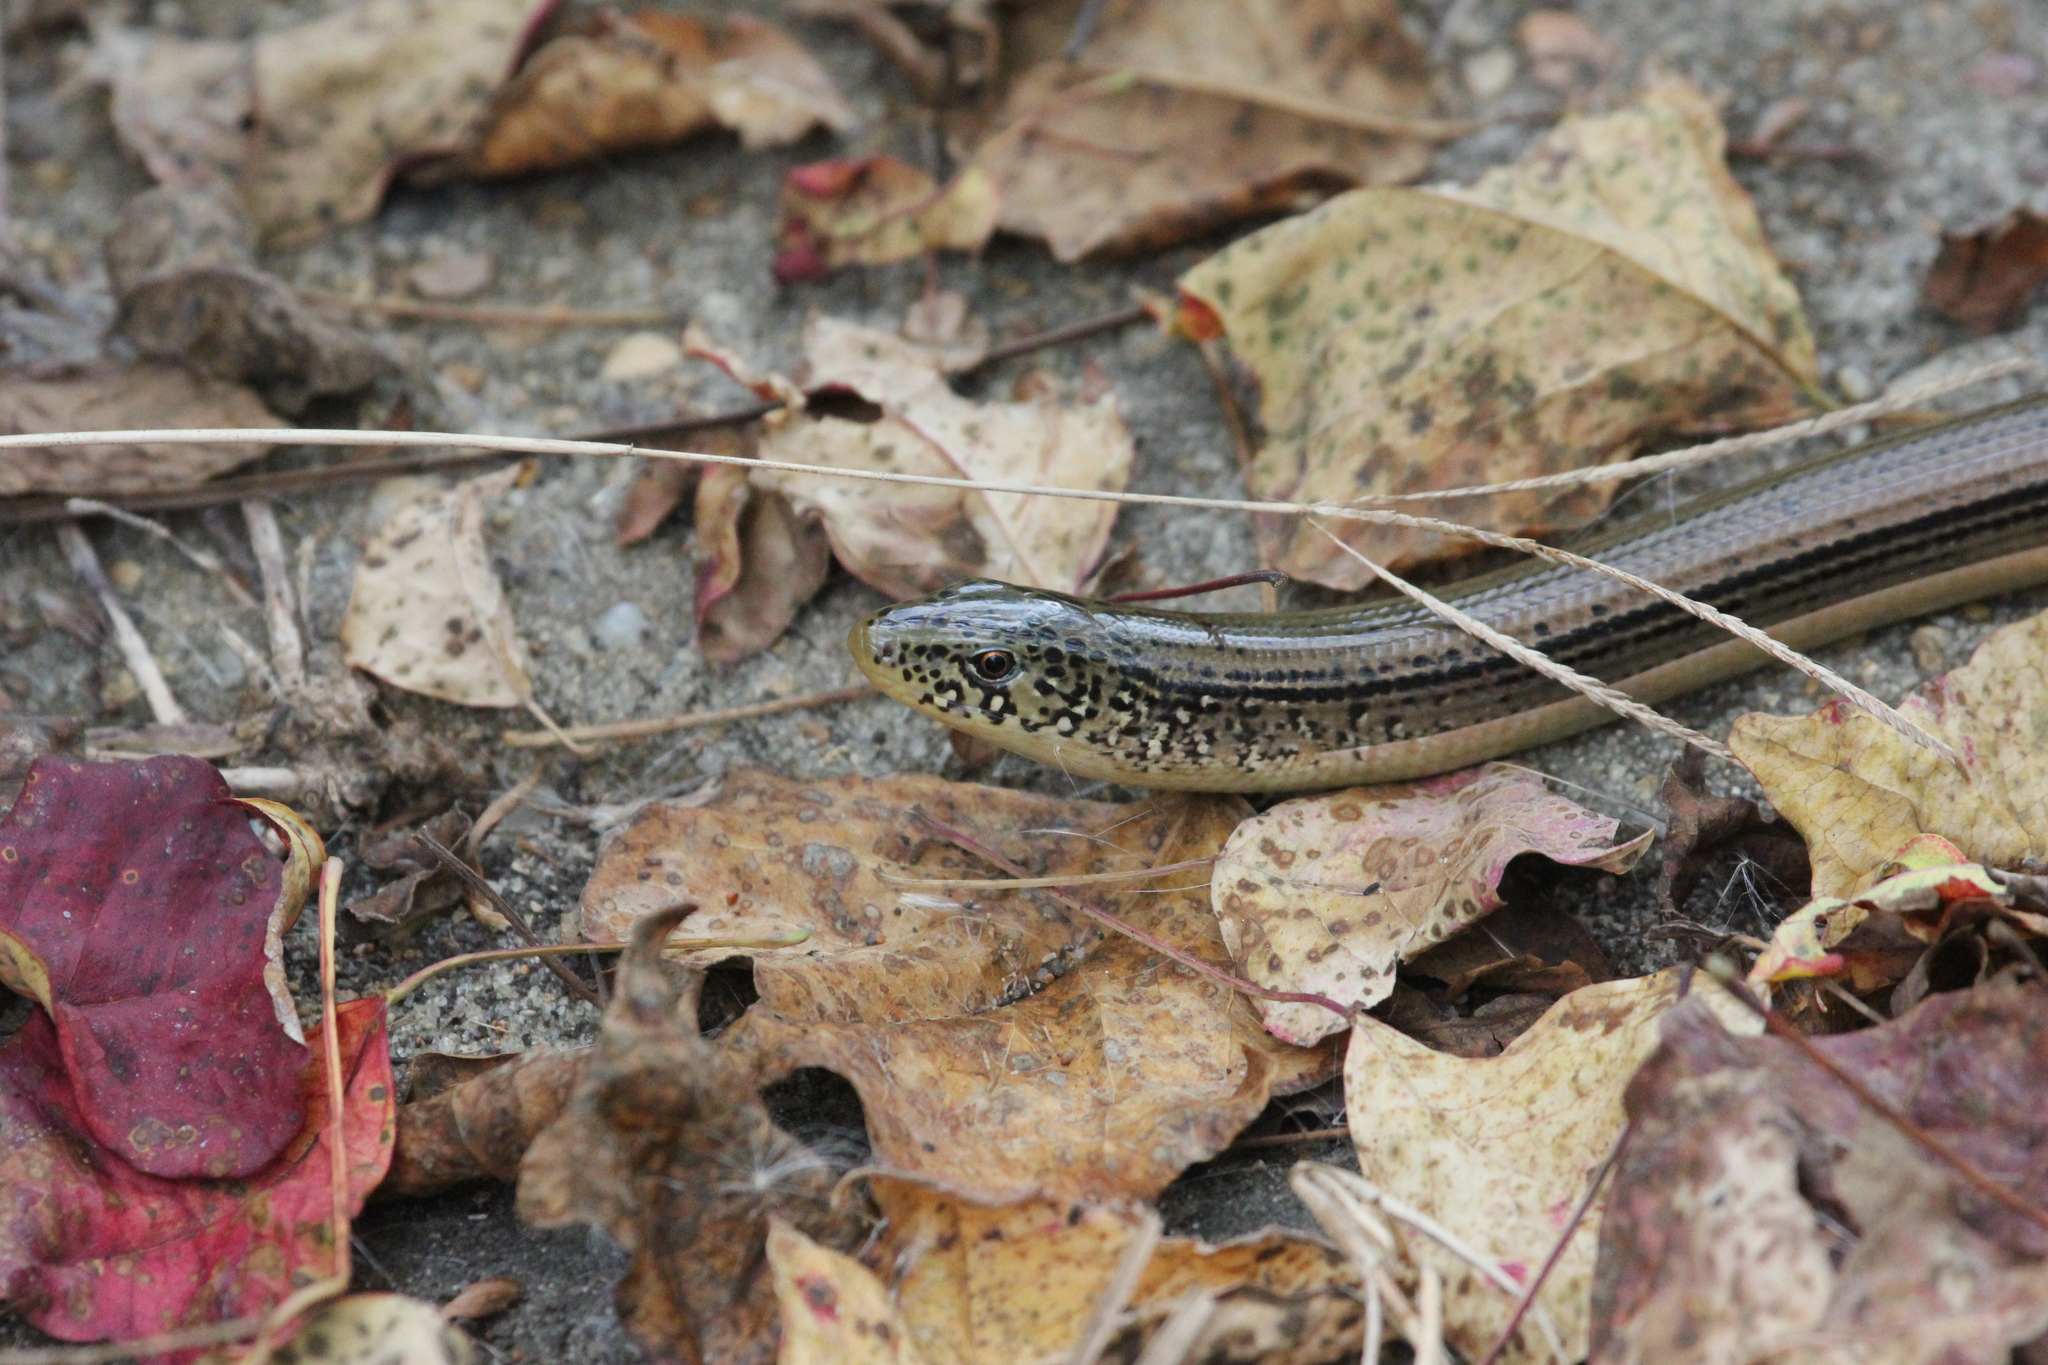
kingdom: Animalia
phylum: Chordata
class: Squamata
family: Anguidae
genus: Ophisaurus
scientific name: Ophisaurus ventralis
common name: Eastern glass lizard
